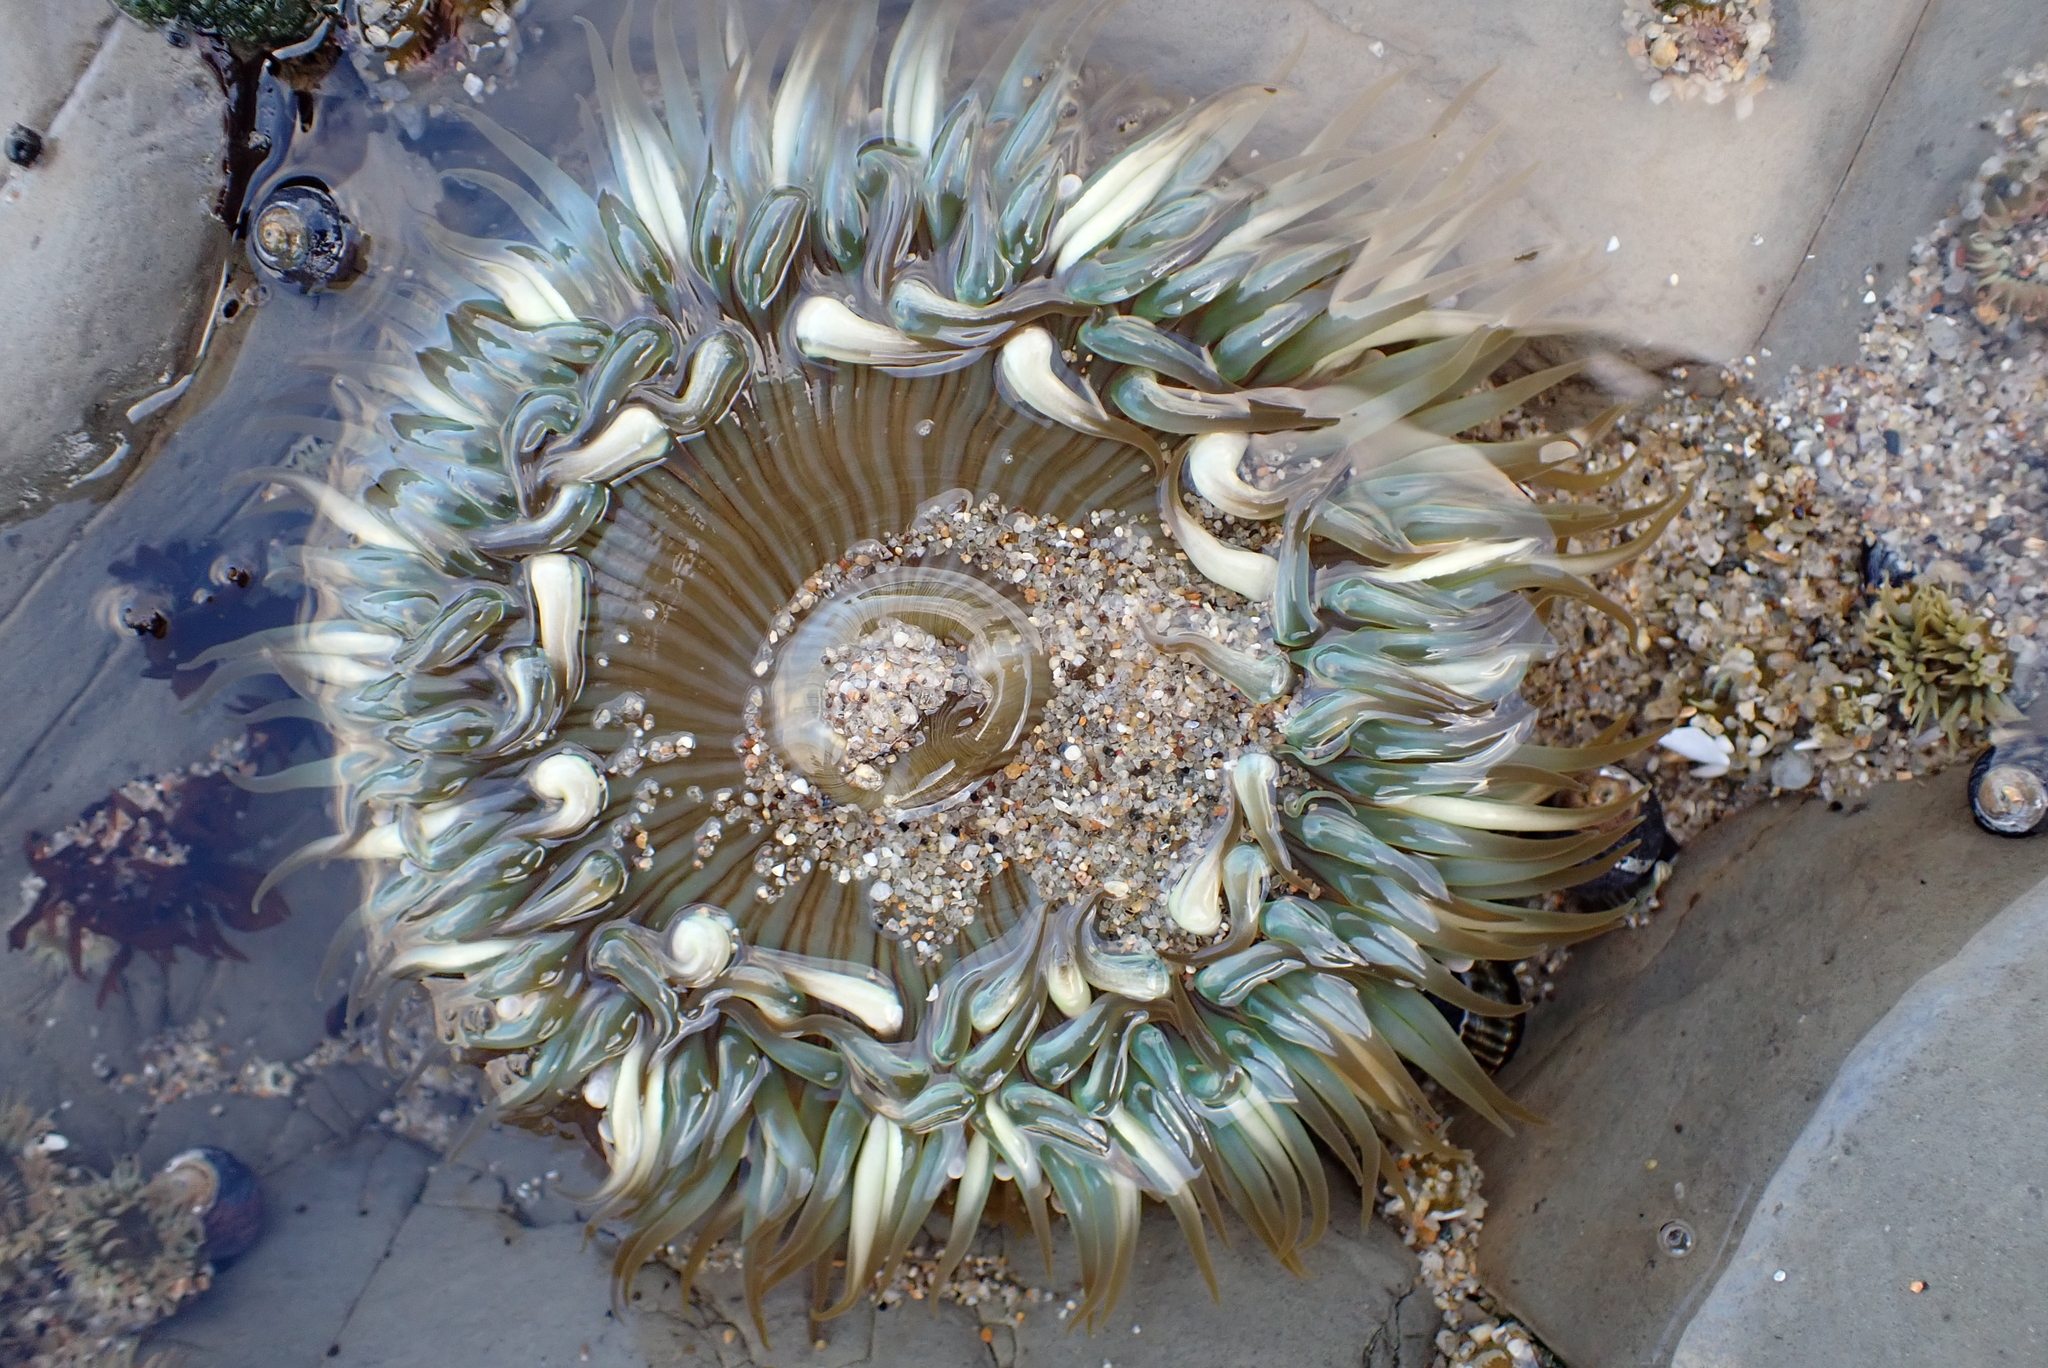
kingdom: Animalia
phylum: Cnidaria
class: Anthozoa
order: Actiniaria
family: Actiniidae
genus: Anthopleura
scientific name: Anthopleura sola
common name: Sun anemone
